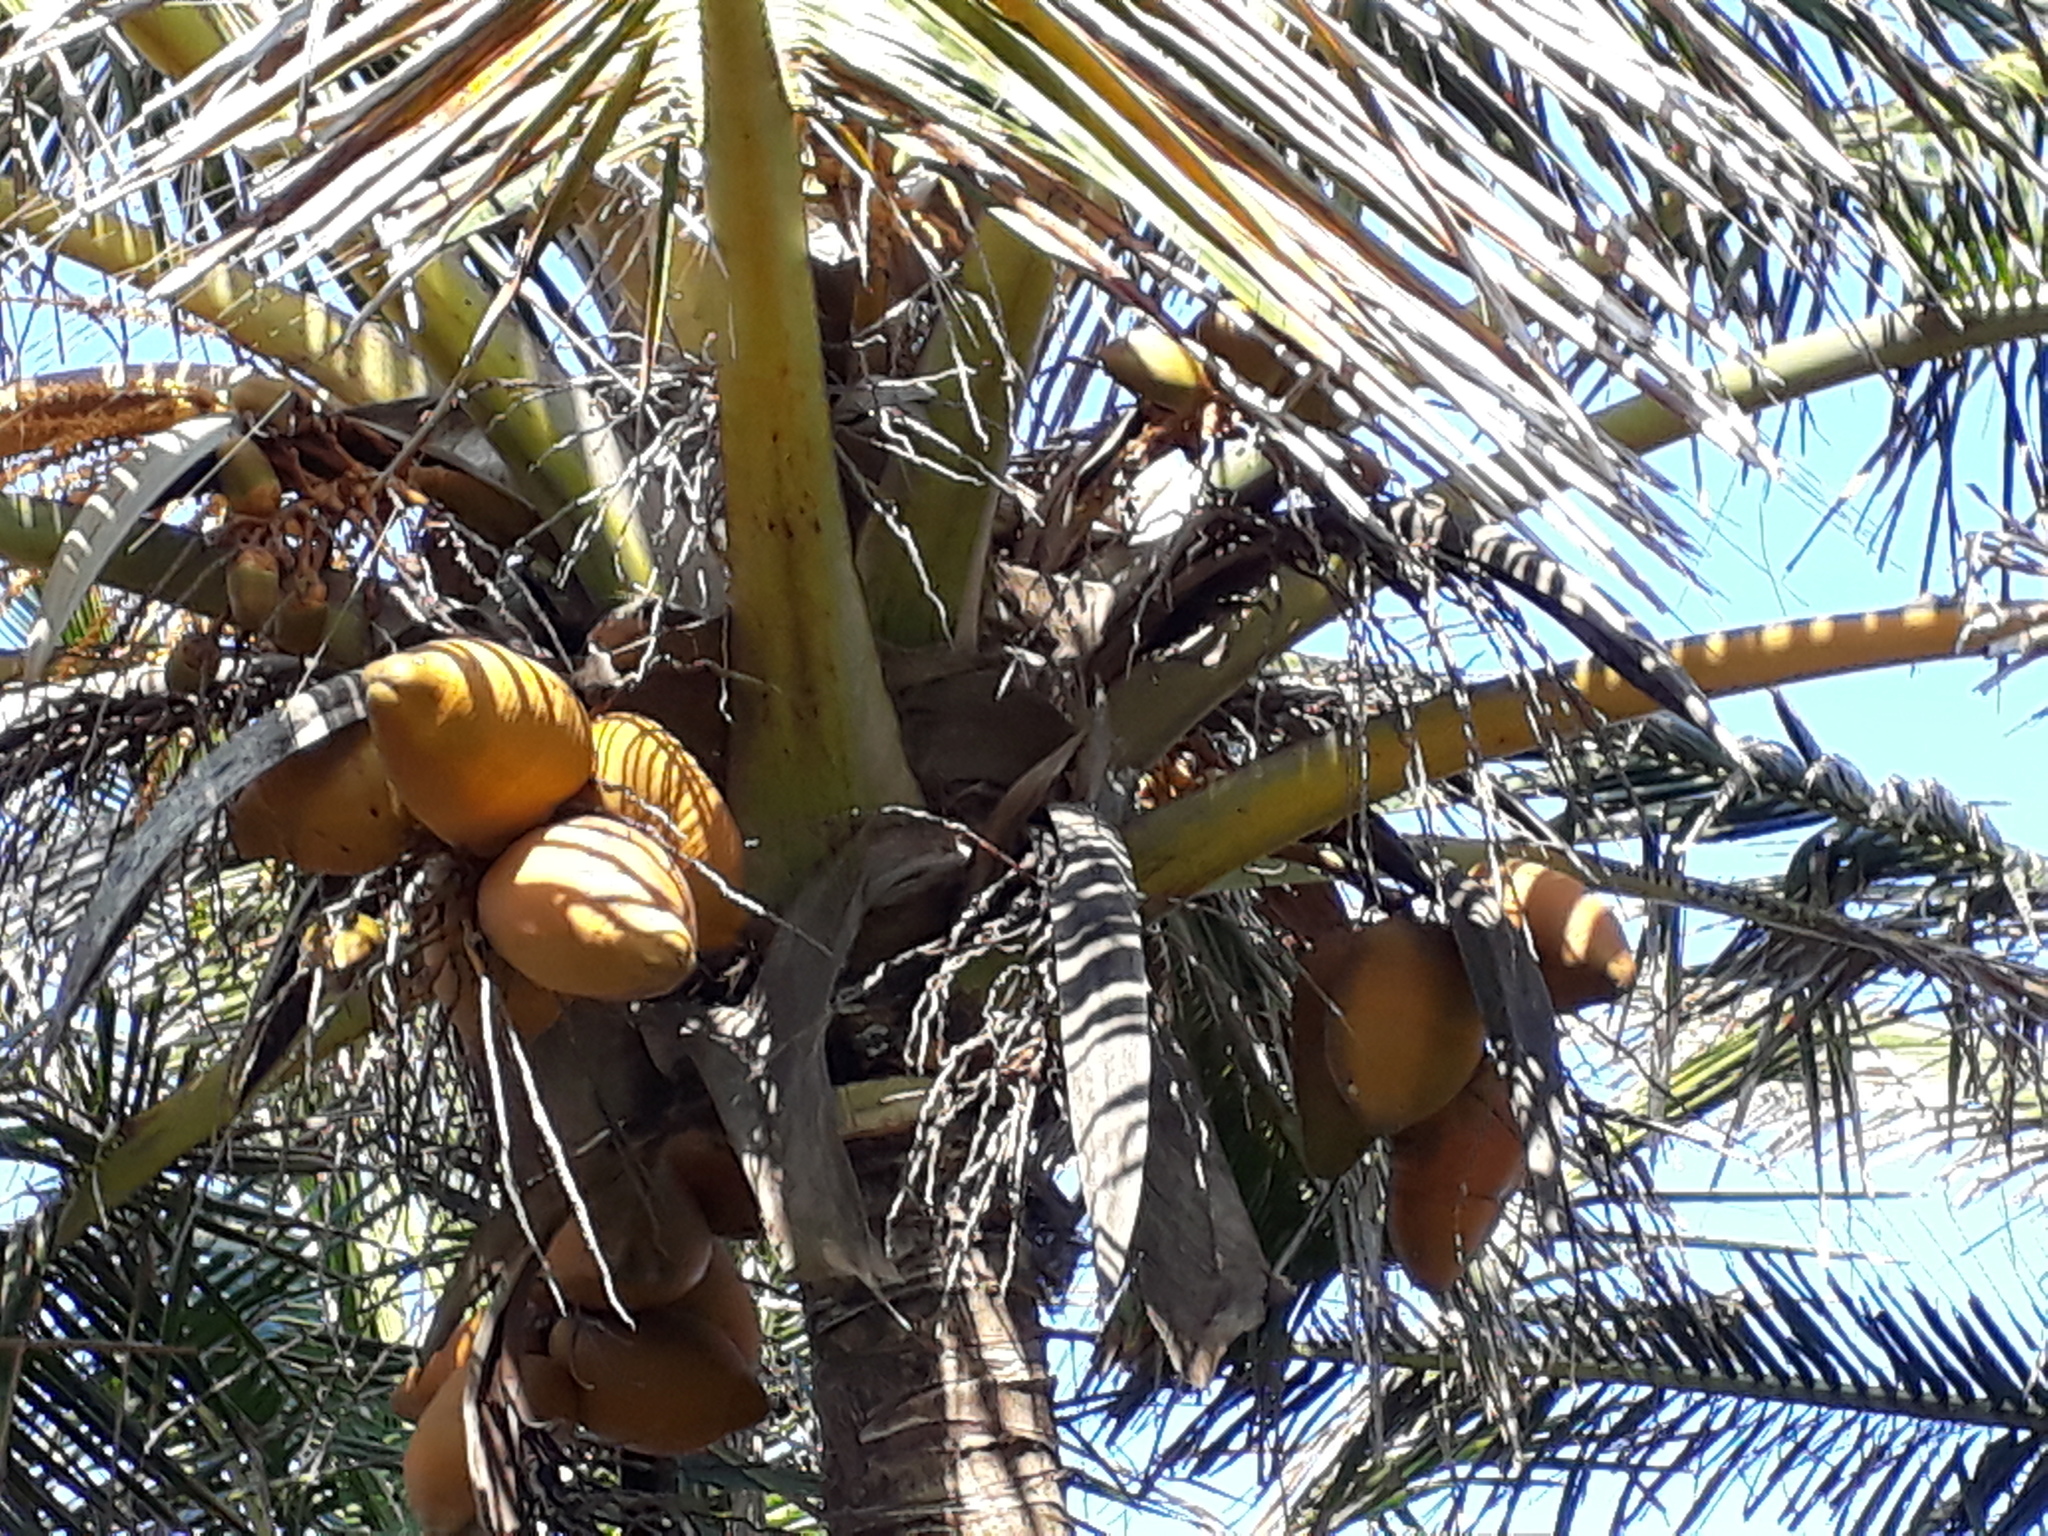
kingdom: Plantae
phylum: Tracheophyta
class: Liliopsida
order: Arecales
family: Arecaceae
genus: Cocos
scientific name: Cocos nucifera
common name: Coconut palm
